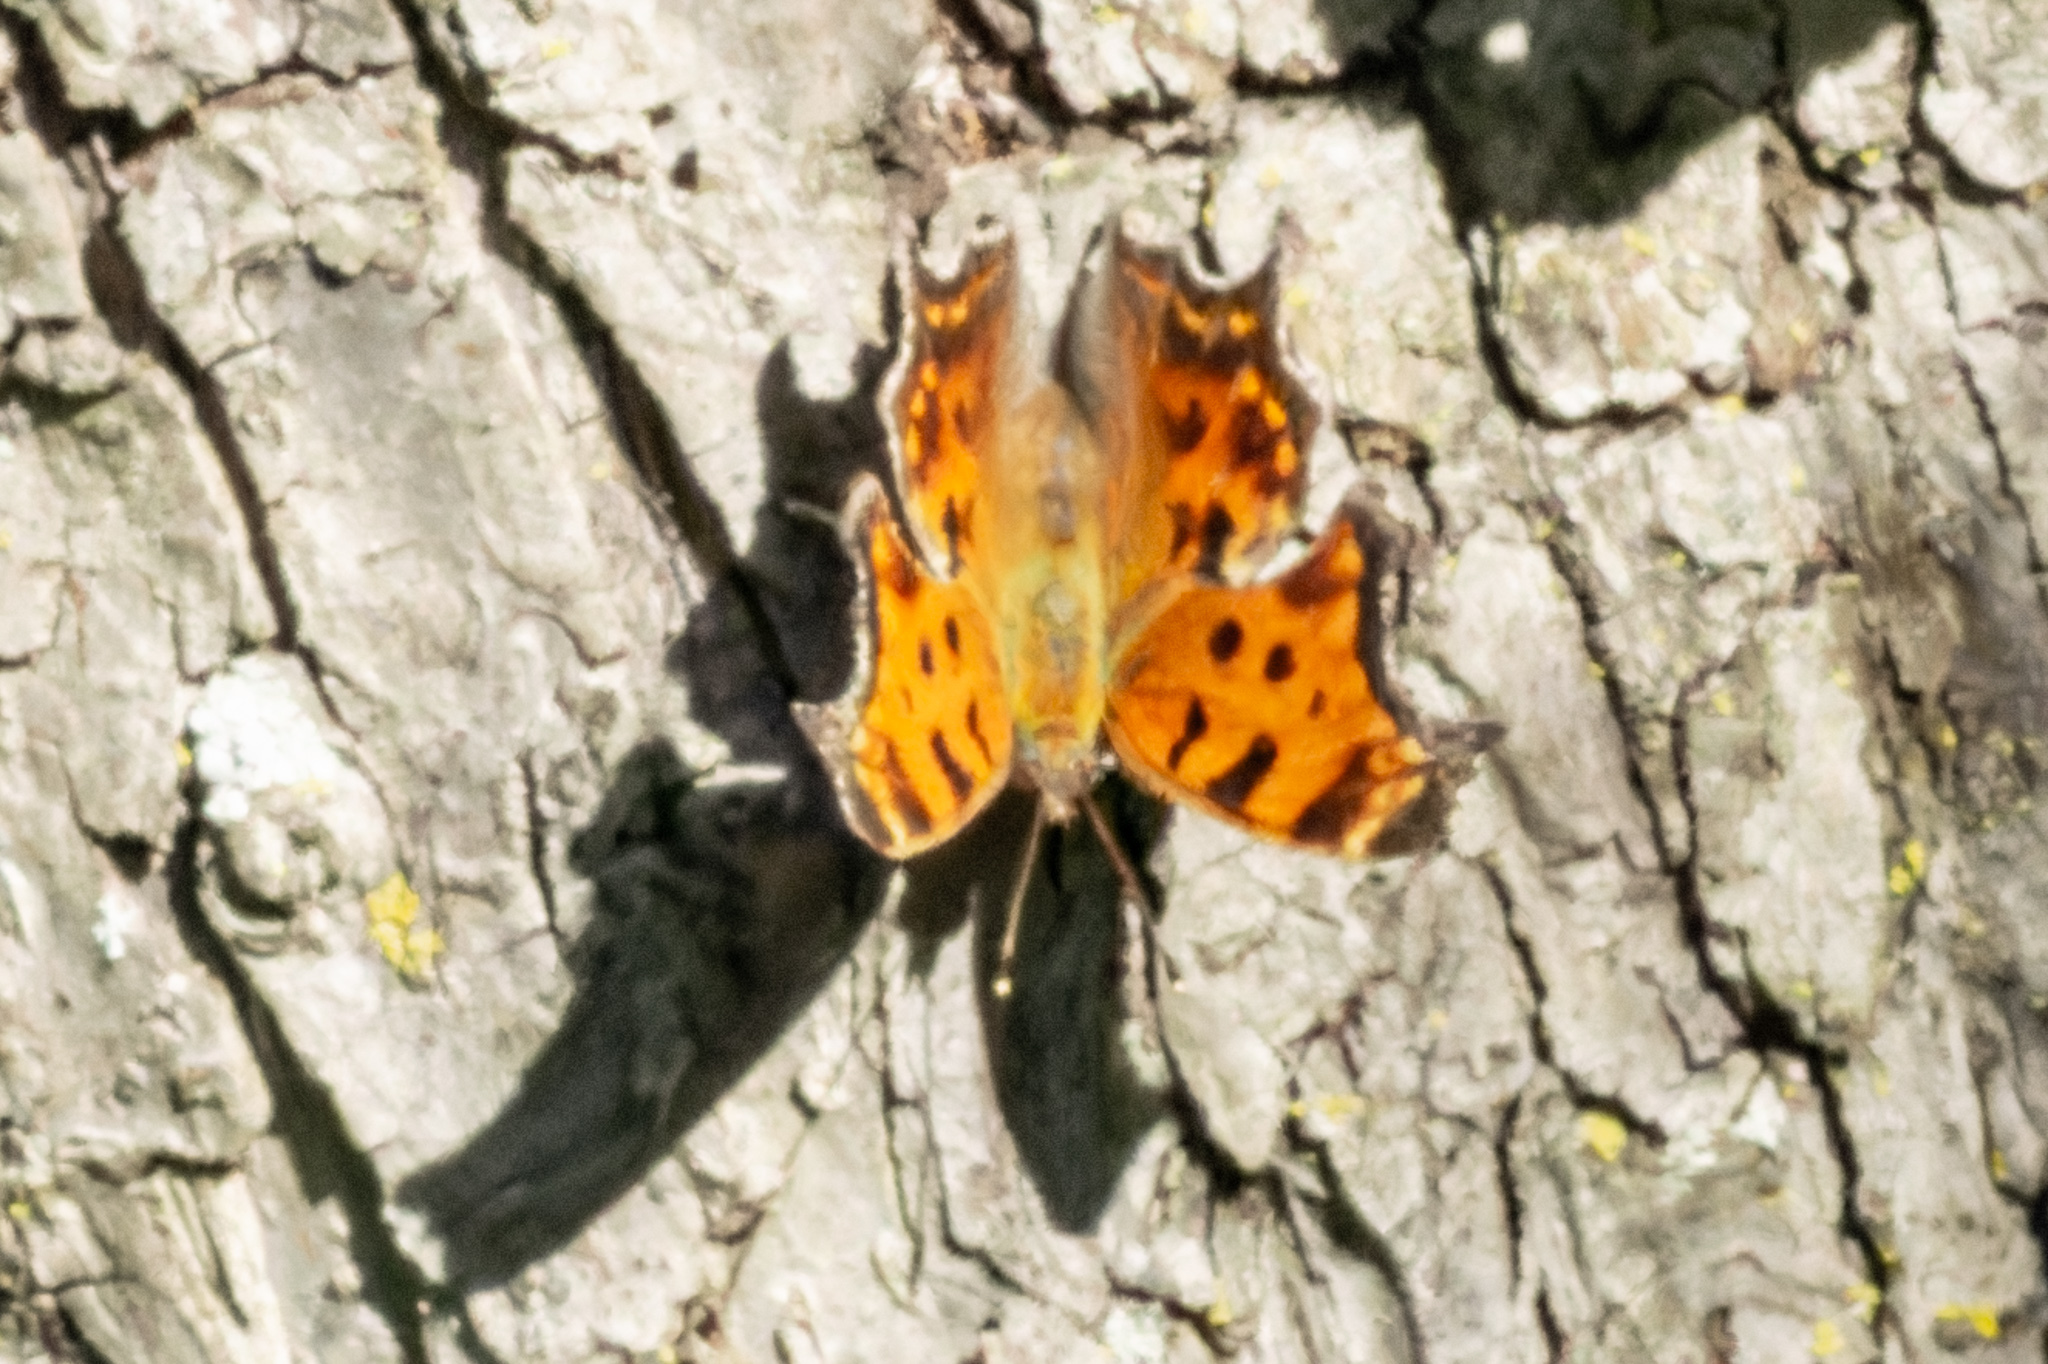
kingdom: Animalia
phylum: Arthropoda
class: Insecta
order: Lepidoptera
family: Nymphalidae
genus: Polygonia
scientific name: Polygonia comma
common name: Eastern comma
